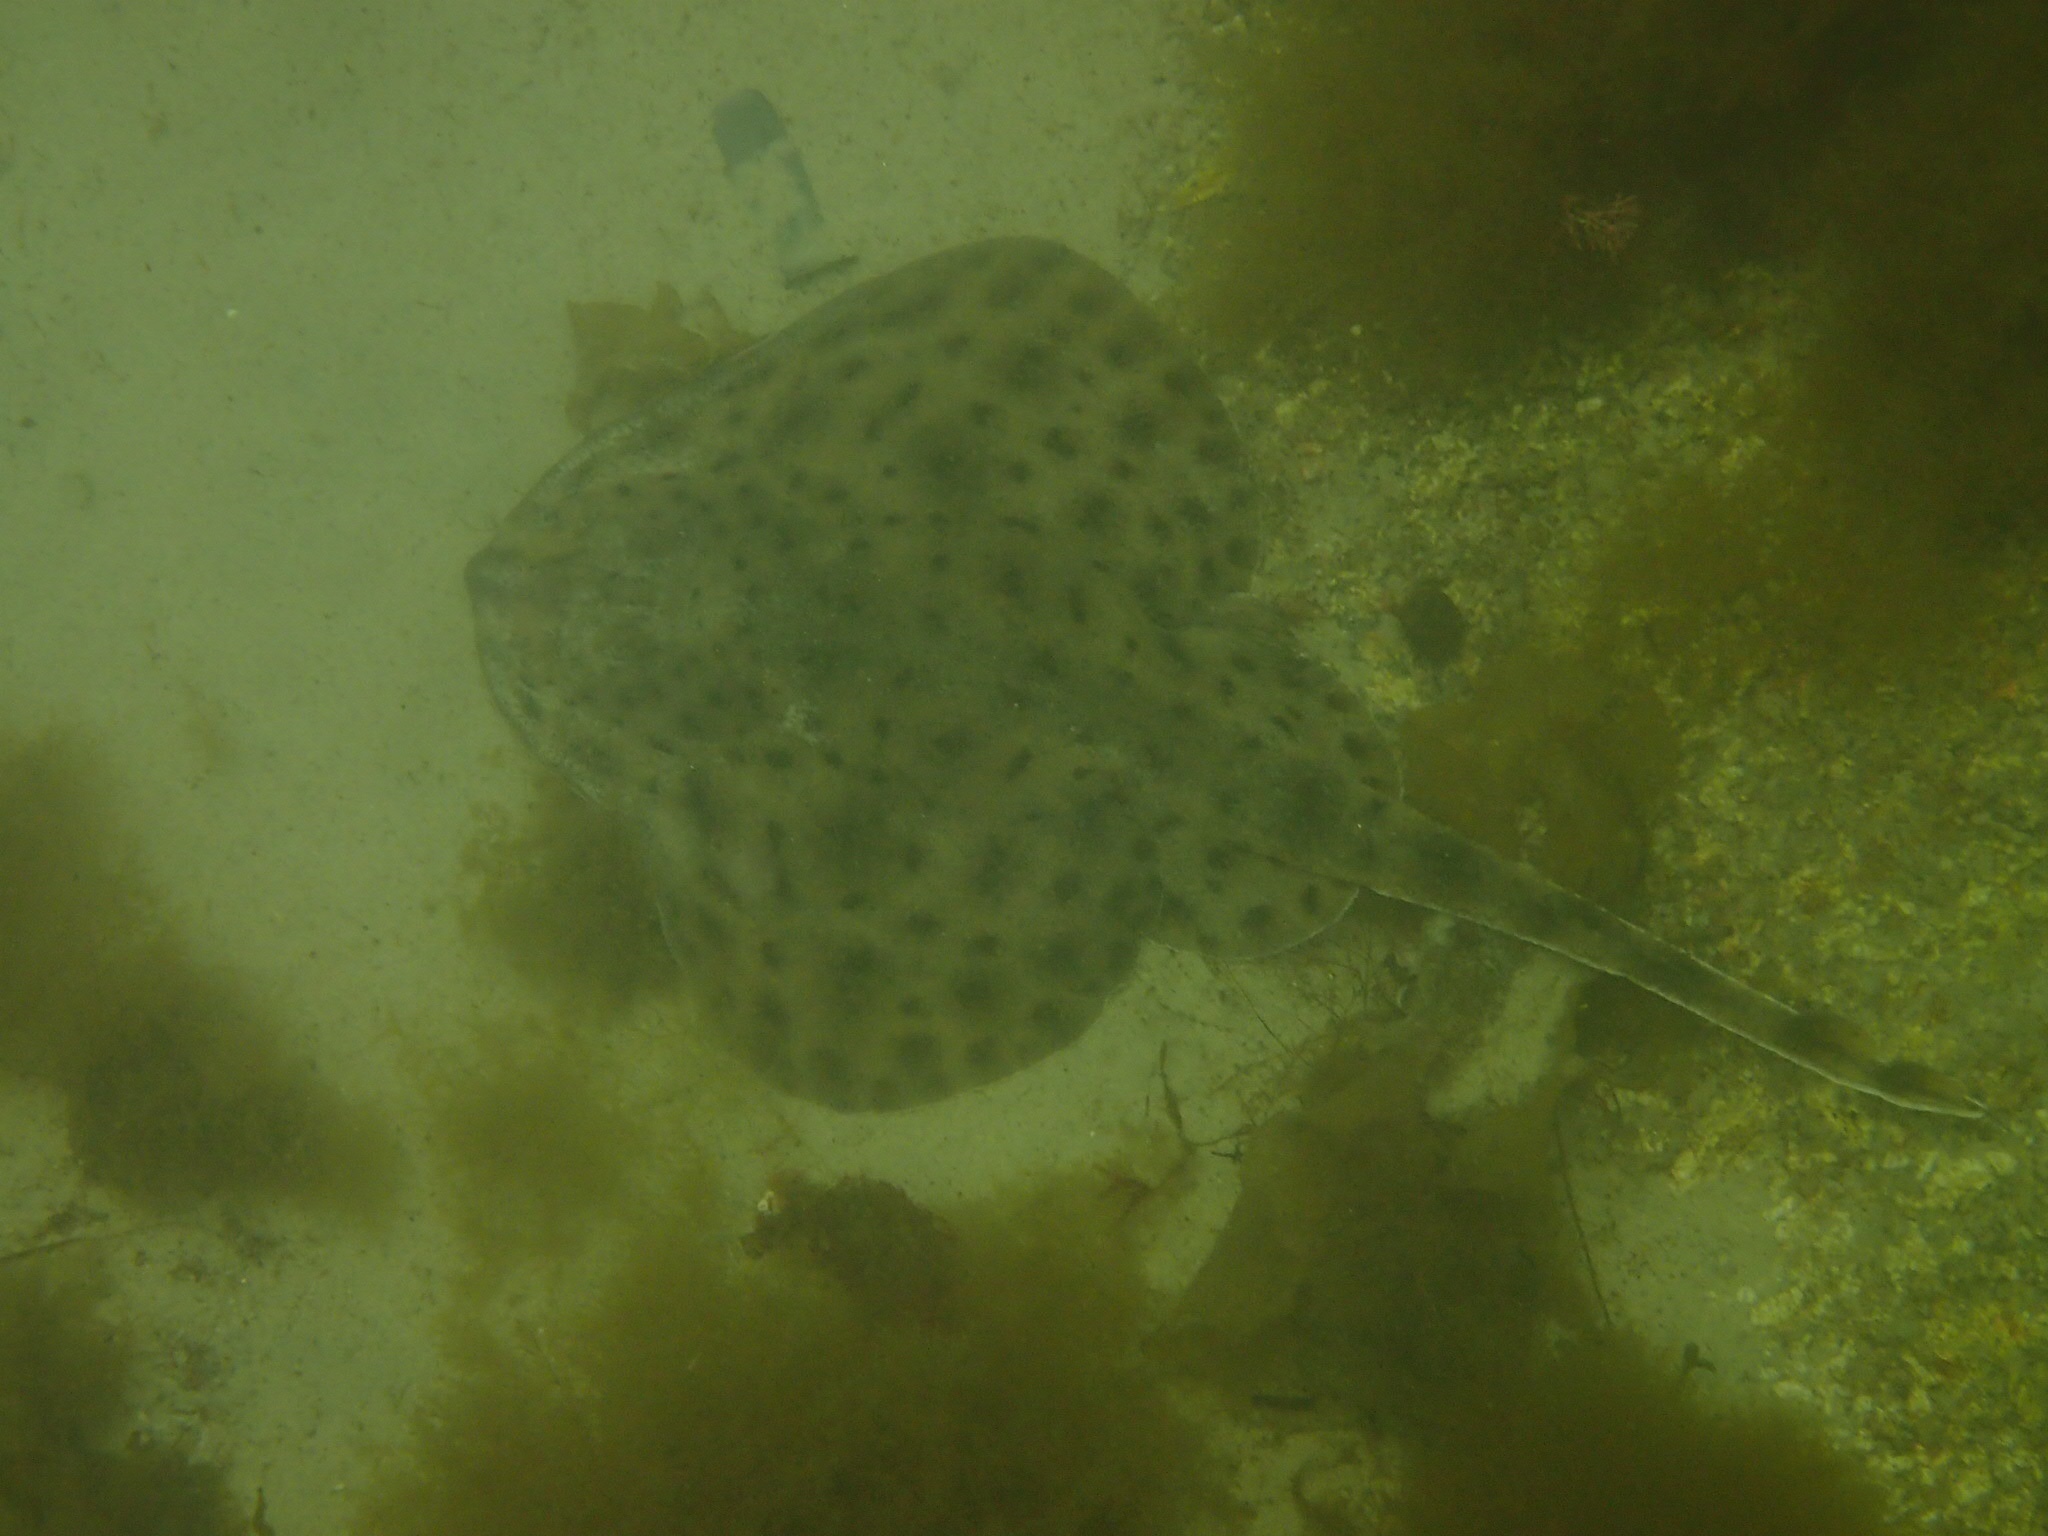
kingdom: Animalia
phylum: Chordata
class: Elasmobranchii
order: Rajiformes
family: Rajidae
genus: Leucoraja
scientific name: Leucoraja erinacea
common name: Little skate
